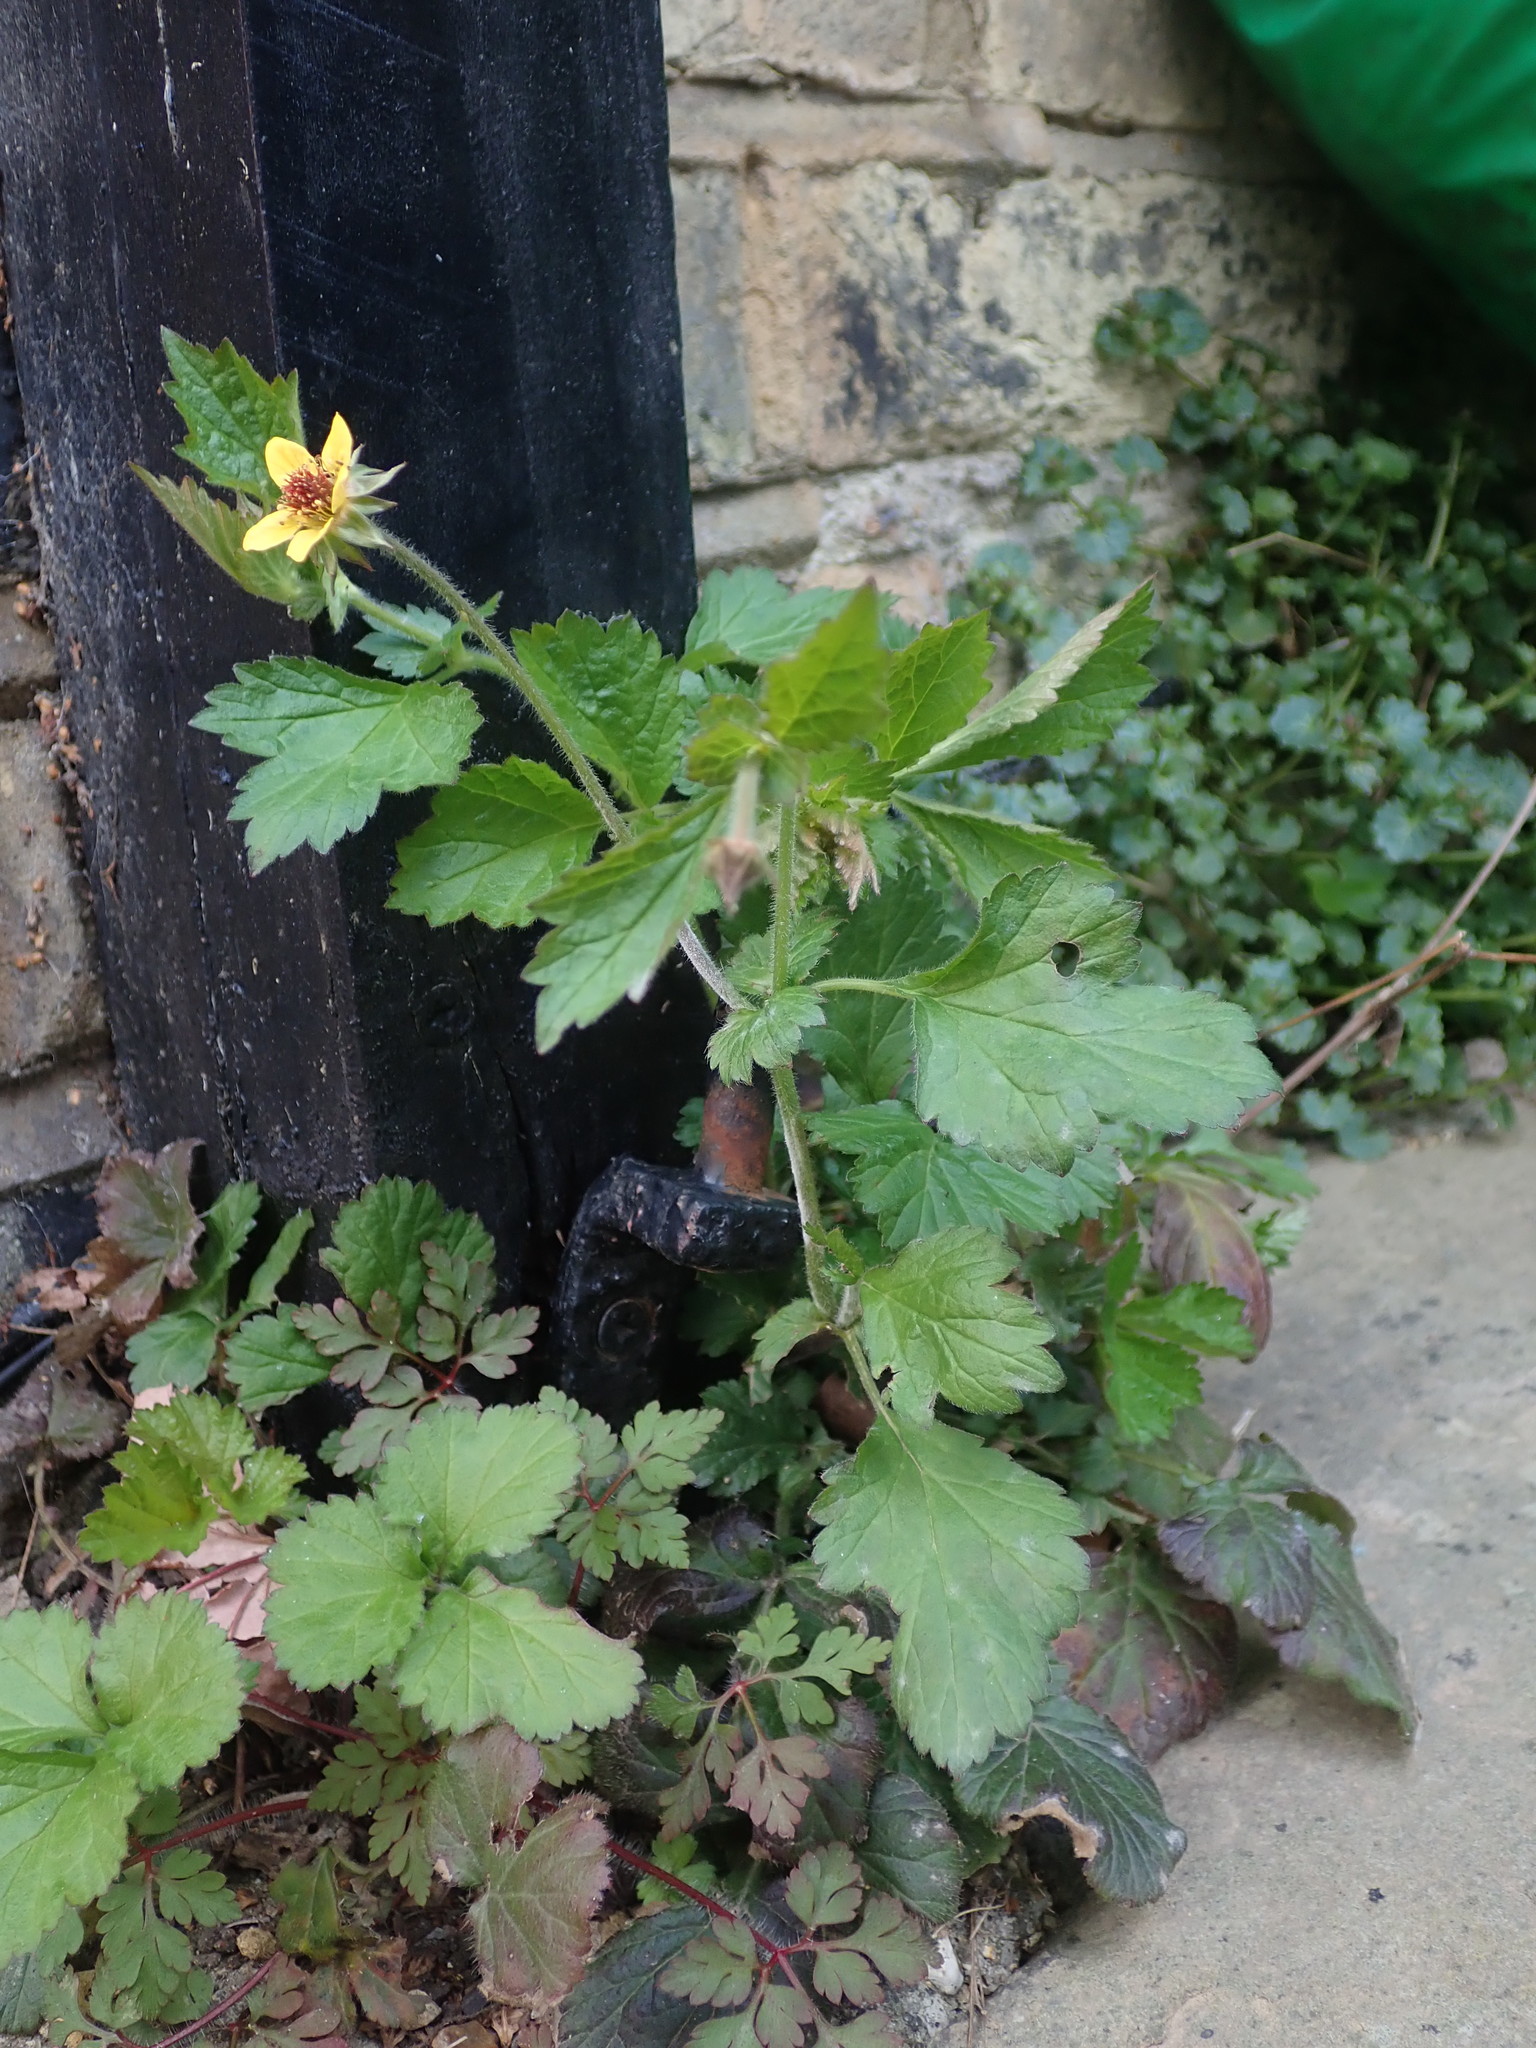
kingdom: Plantae
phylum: Tracheophyta
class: Magnoliopsida
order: Rosales
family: Rosaceae
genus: Geum
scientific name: Geum urbanum
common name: Wood avens
